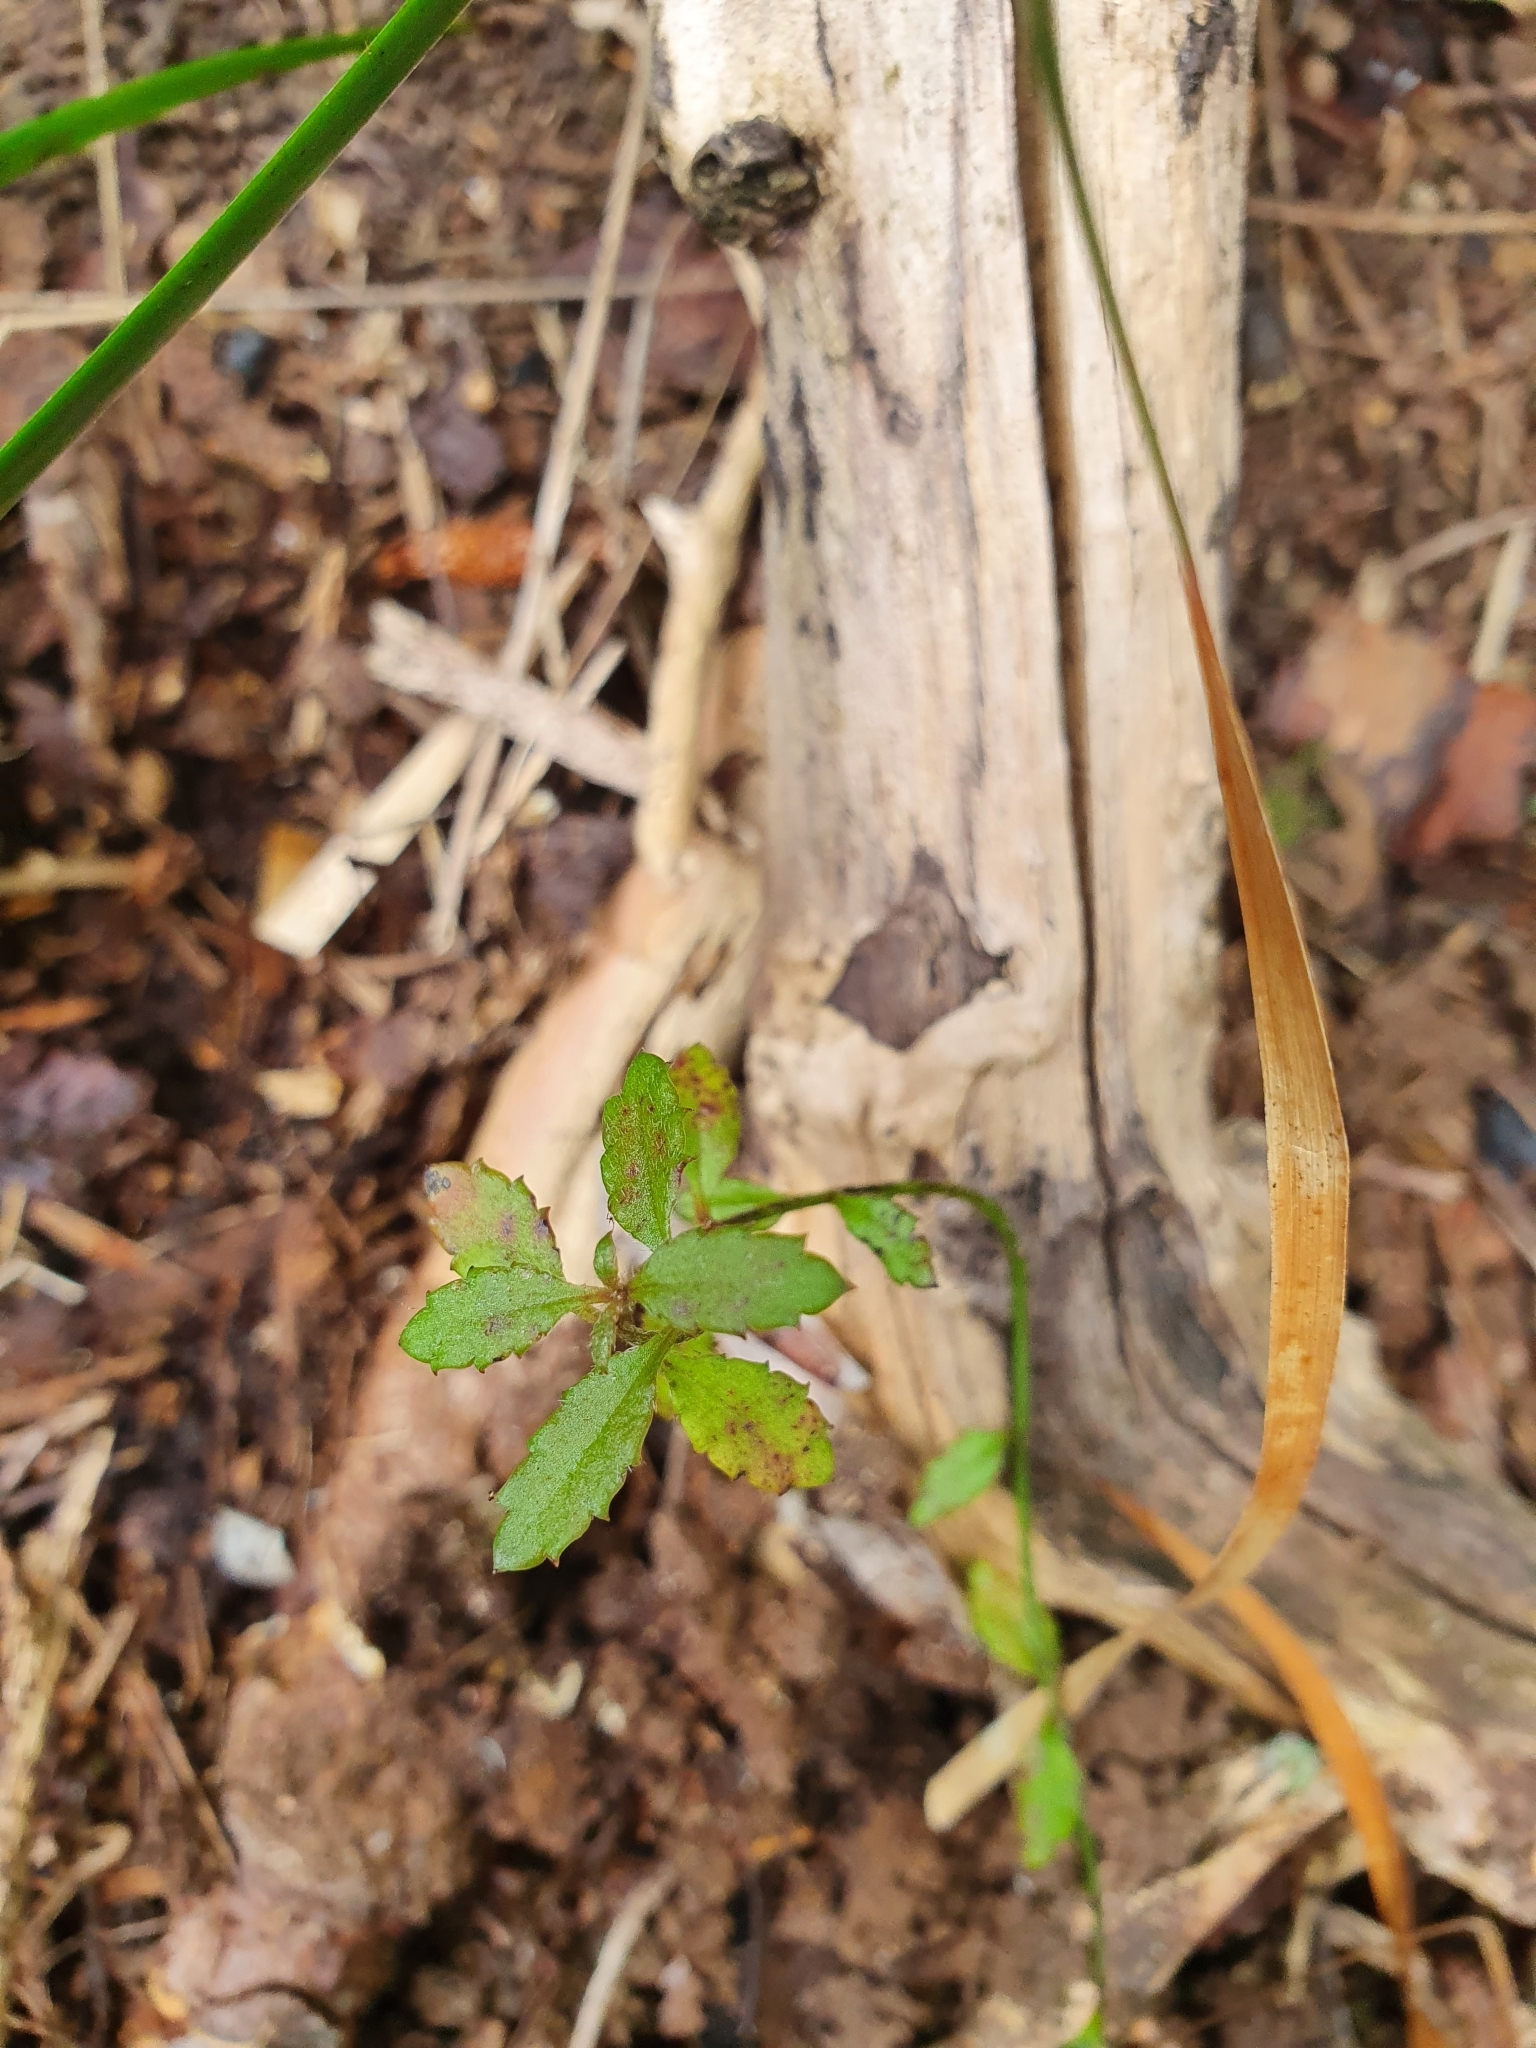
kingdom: Plantae
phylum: Tracheophyta
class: Magnoliopsida
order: Saxifragales
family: Haloragaceae
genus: Gonocarpus
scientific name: Gonocarpus incanus
